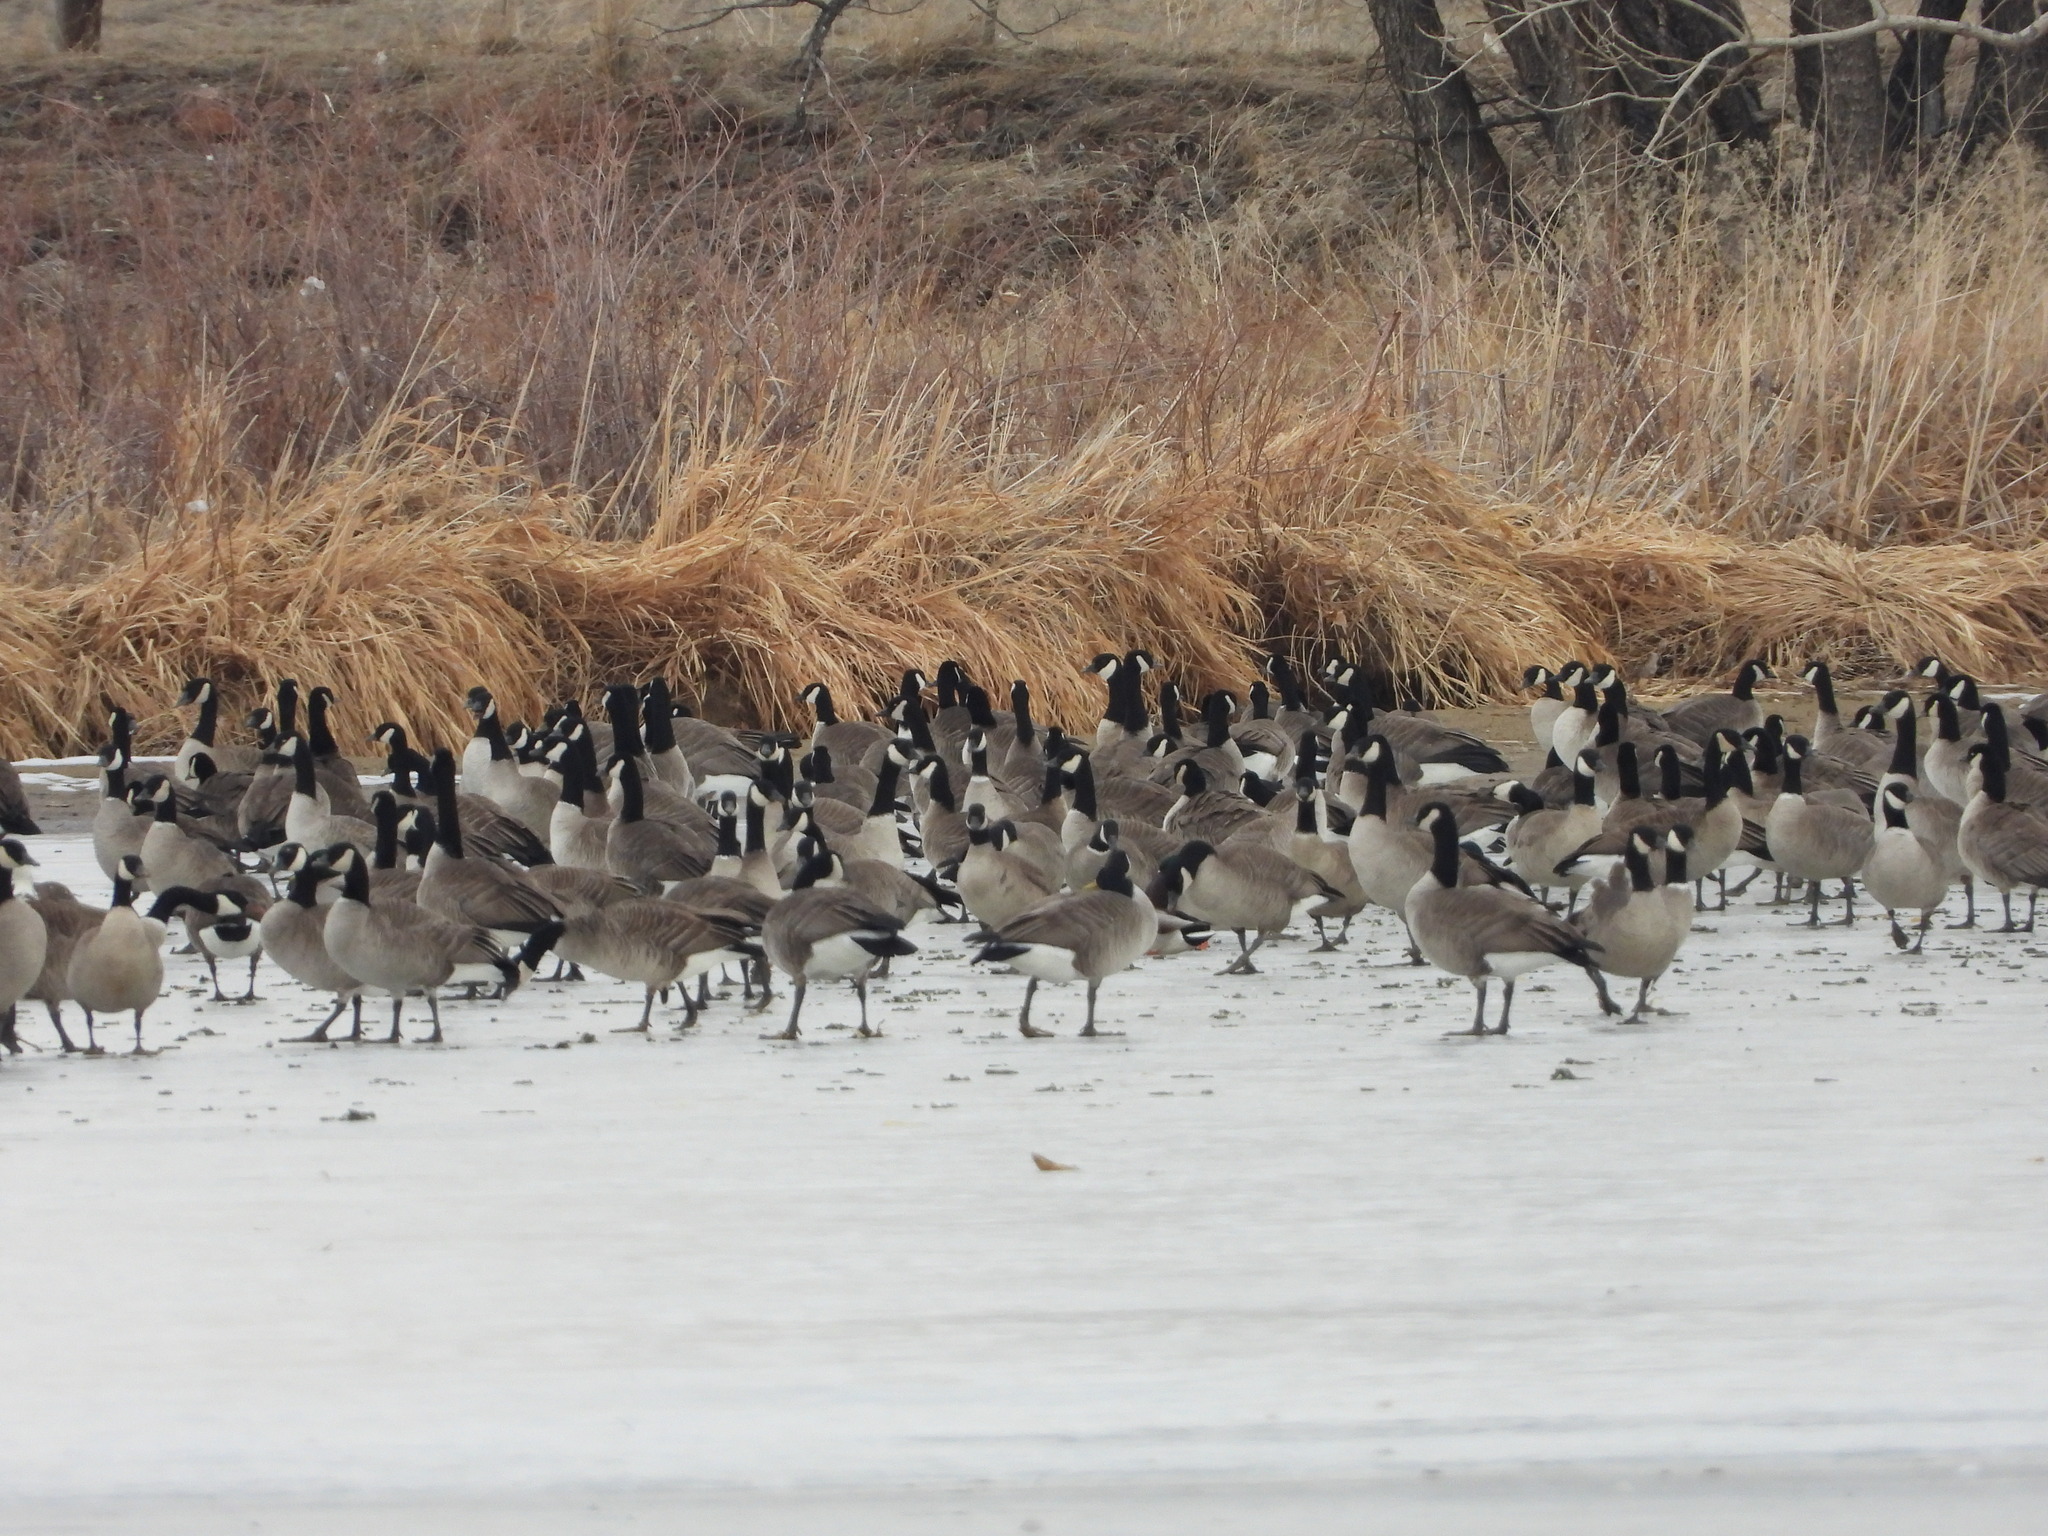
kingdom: Animalia
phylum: Chordata
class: Aves
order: Anseriformes
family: Anatidae
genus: Branta
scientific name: Branta hutchinsii
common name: Cackling goose
